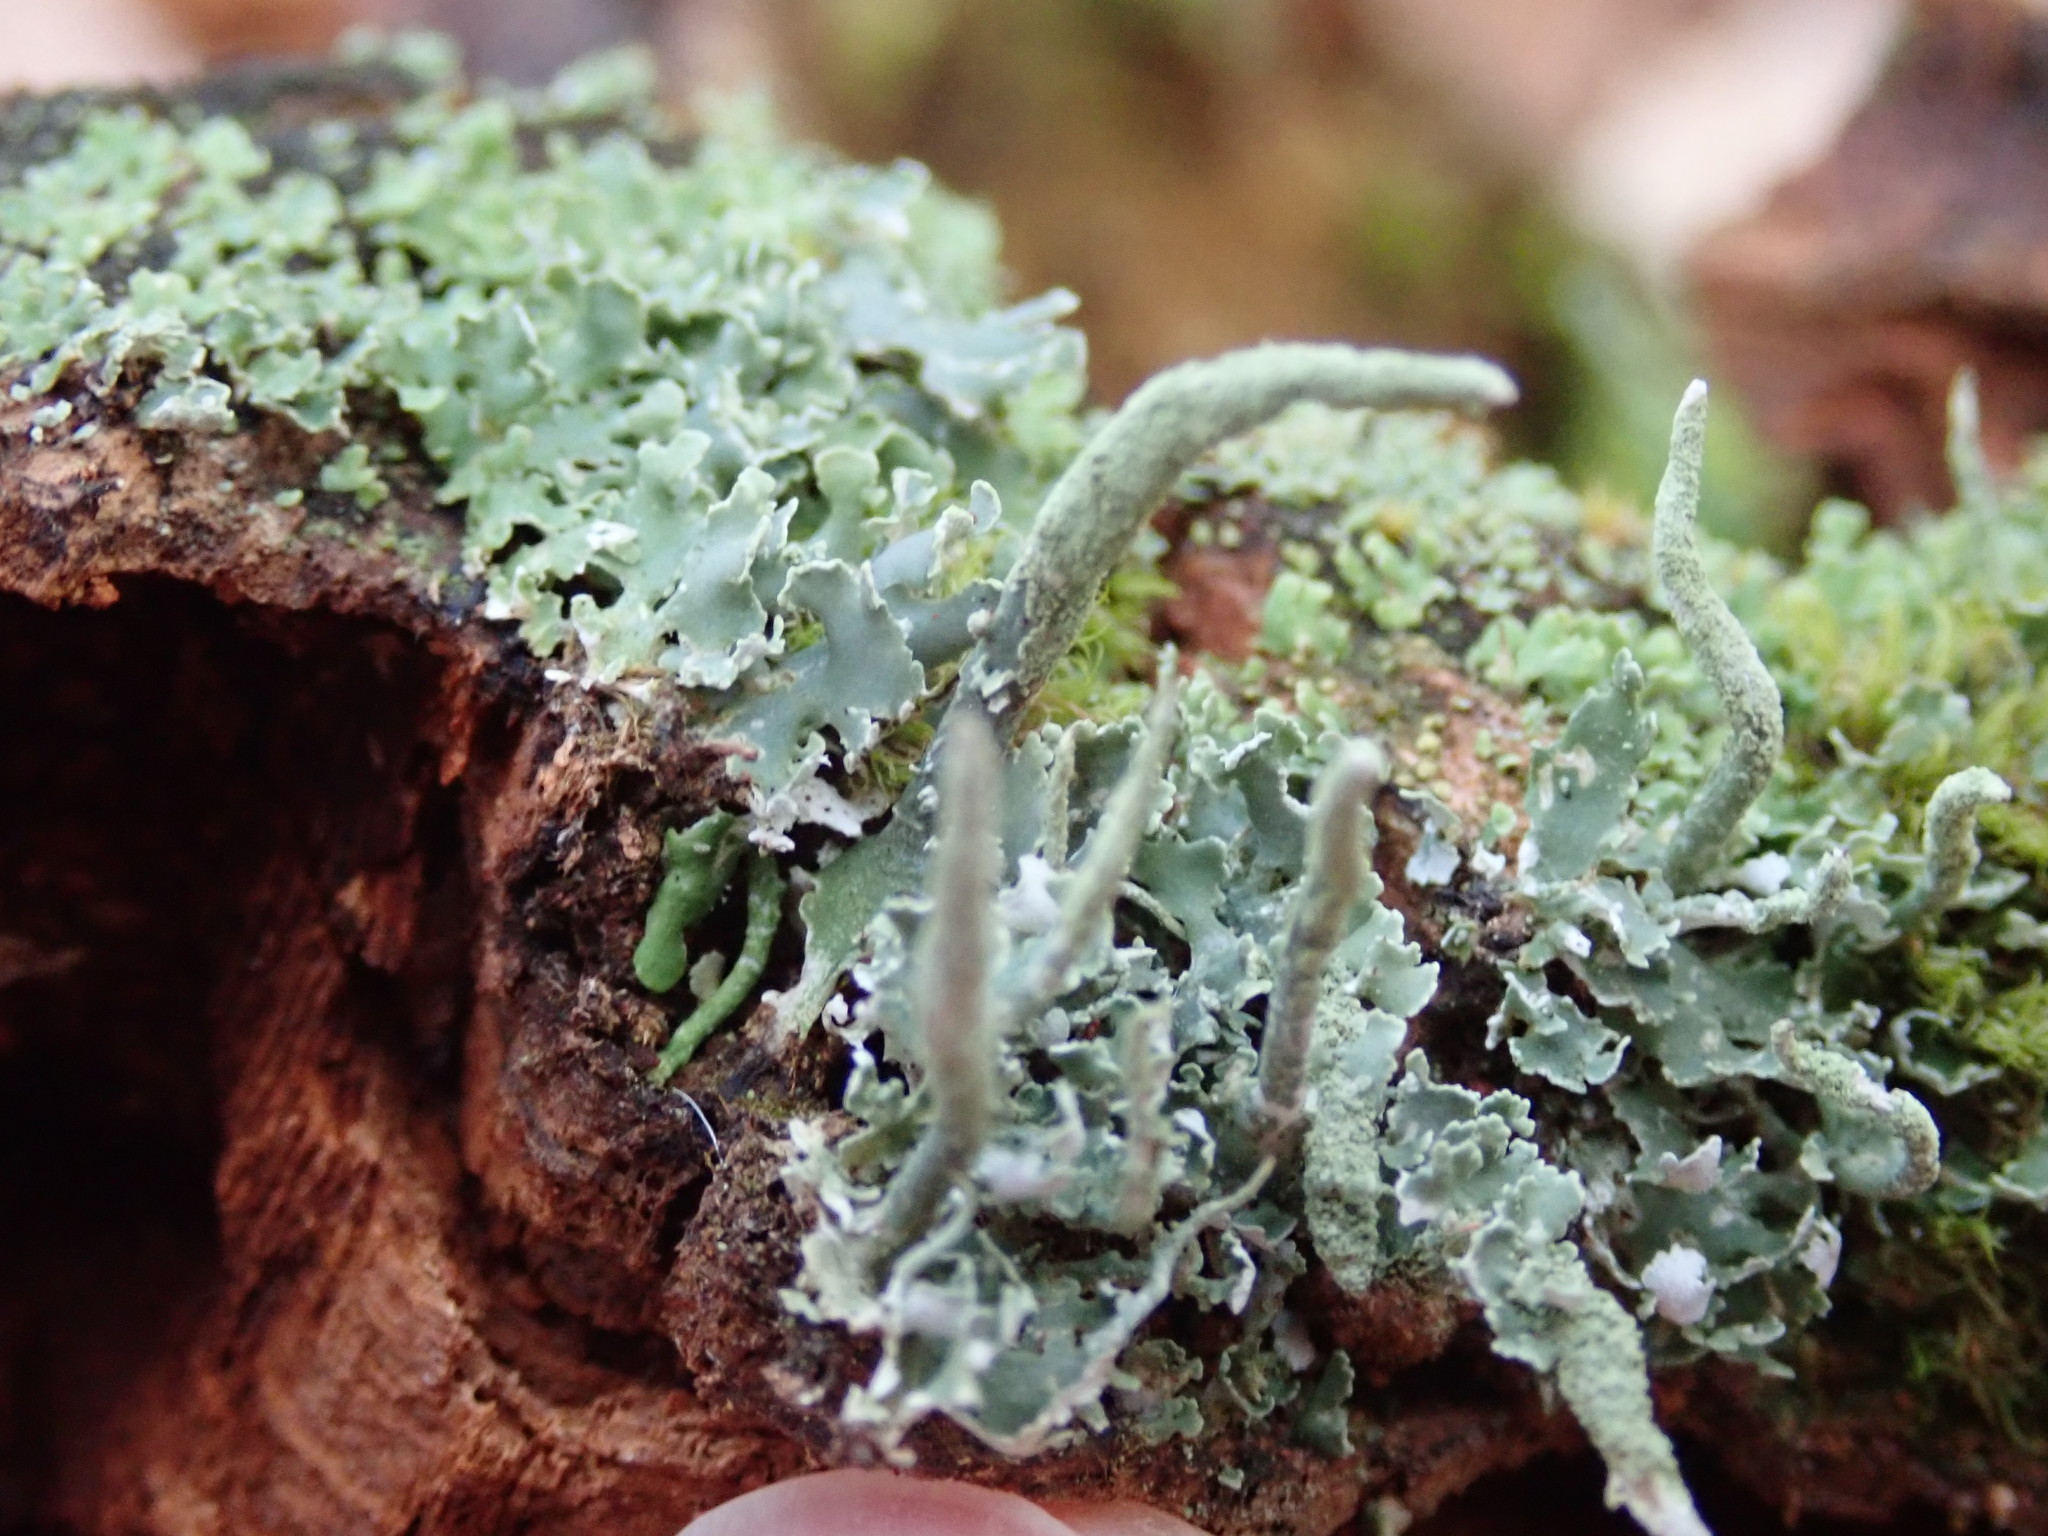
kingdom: Fungi
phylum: Ascomycota
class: Lecanoromycetes
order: Lecanorales
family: Cladoniaceae
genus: Cladonia
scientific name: Cladonia coniocraea
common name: Common powderhorn
